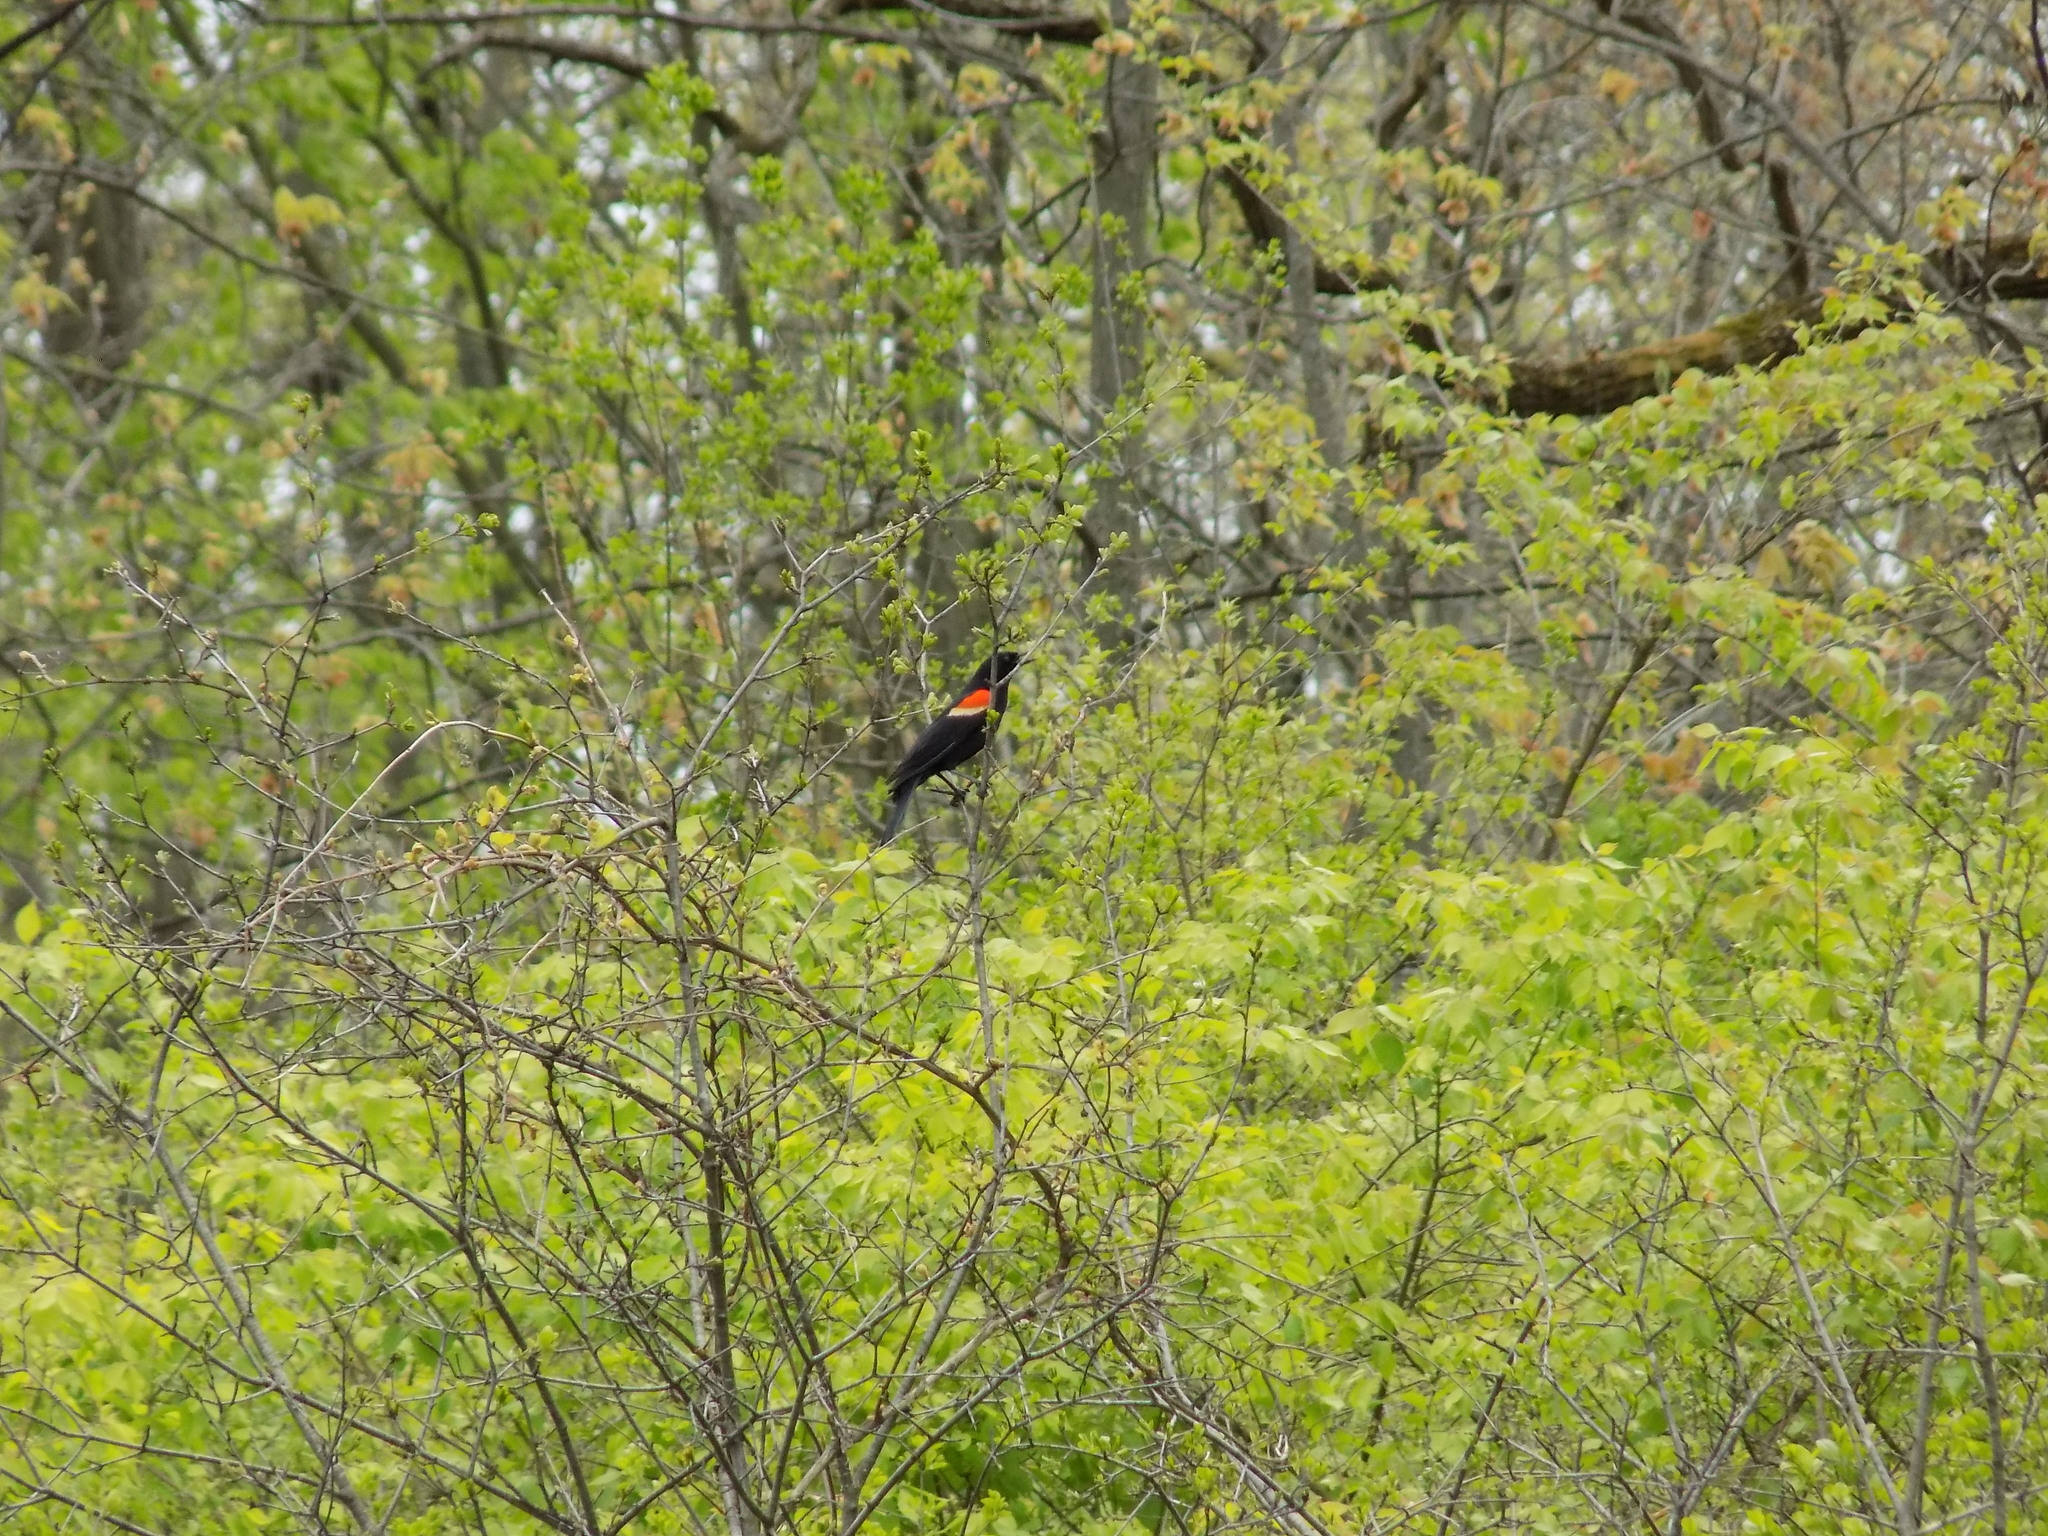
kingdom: Animalia
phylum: Chordata
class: Aves
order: Passeriformes
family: Icteridae
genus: Agelaius
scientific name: Agelaius phoeniceus
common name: Red-winged blackbird
